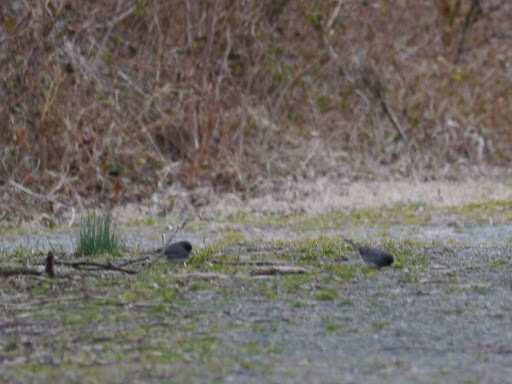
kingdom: Animalia
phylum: Chordata
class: Aves
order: Passeriformes
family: Passerellidae
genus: Junco
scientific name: Junco hyemalis
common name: Dark-eyed junco
